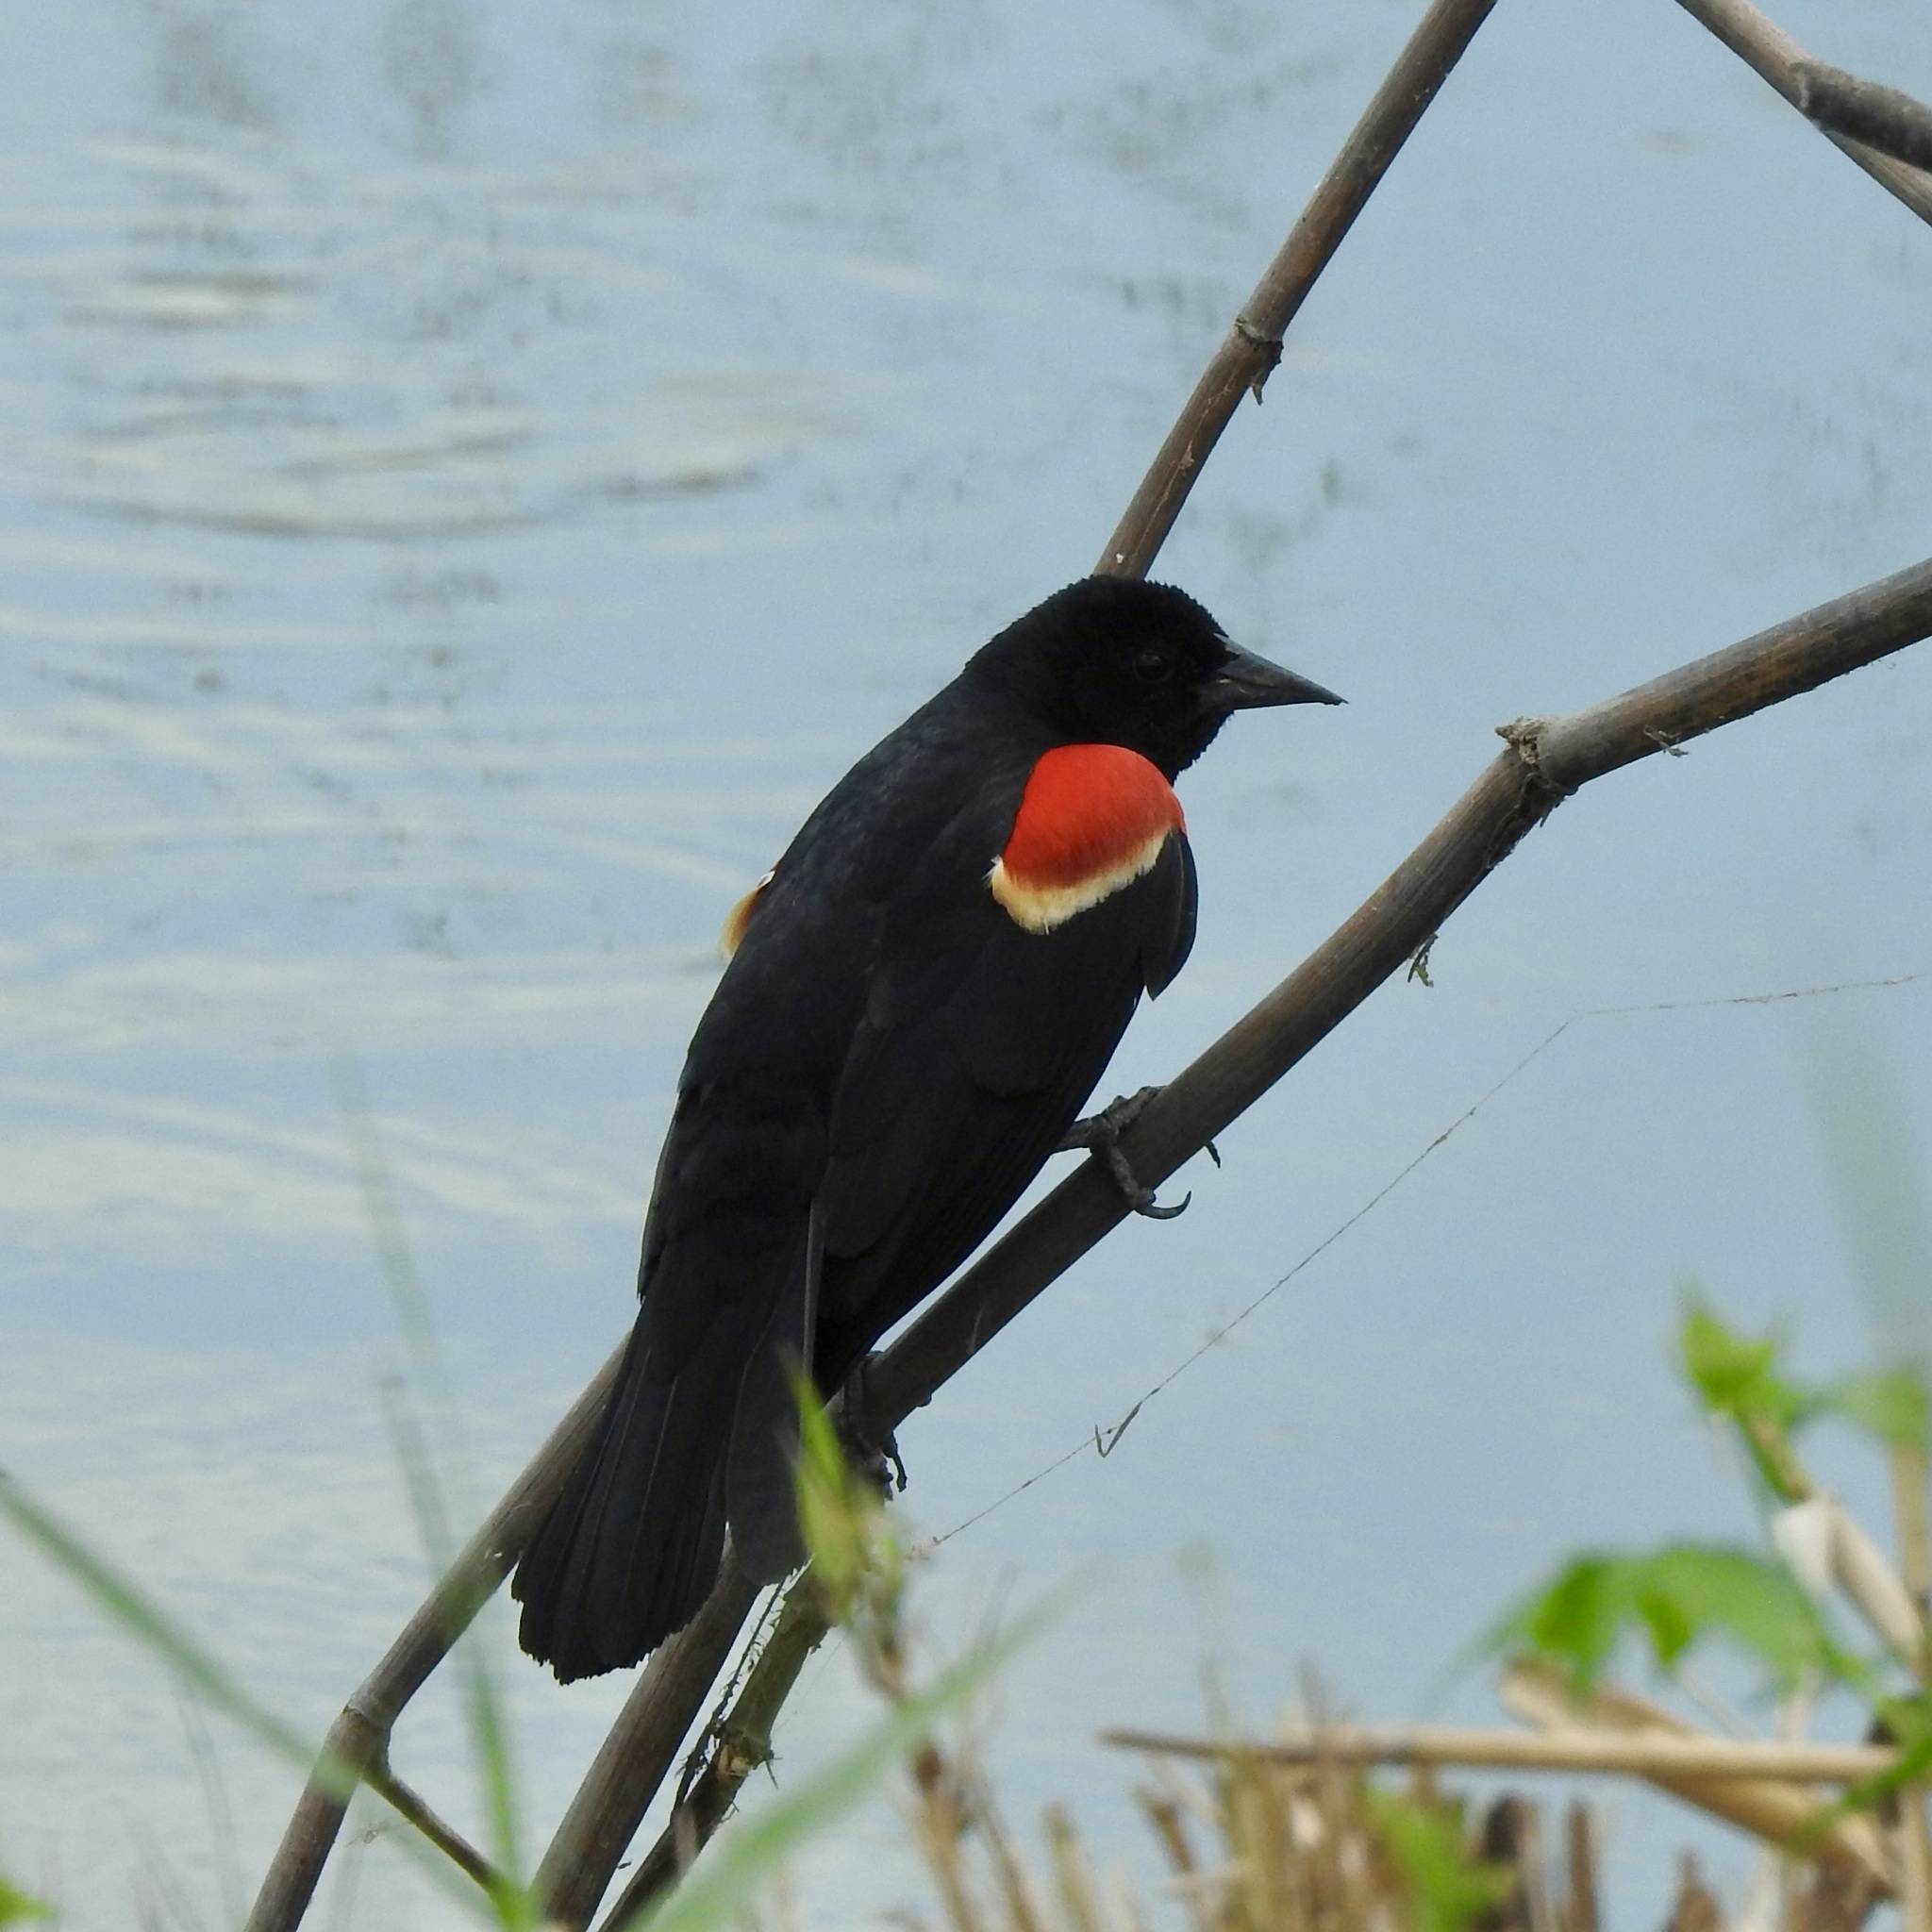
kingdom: Animalia
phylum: Chordata
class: Aves
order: Passeriformes
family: Icteridae
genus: Agelaius
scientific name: Agelaius phoeniceus
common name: Red-winged blackbird
